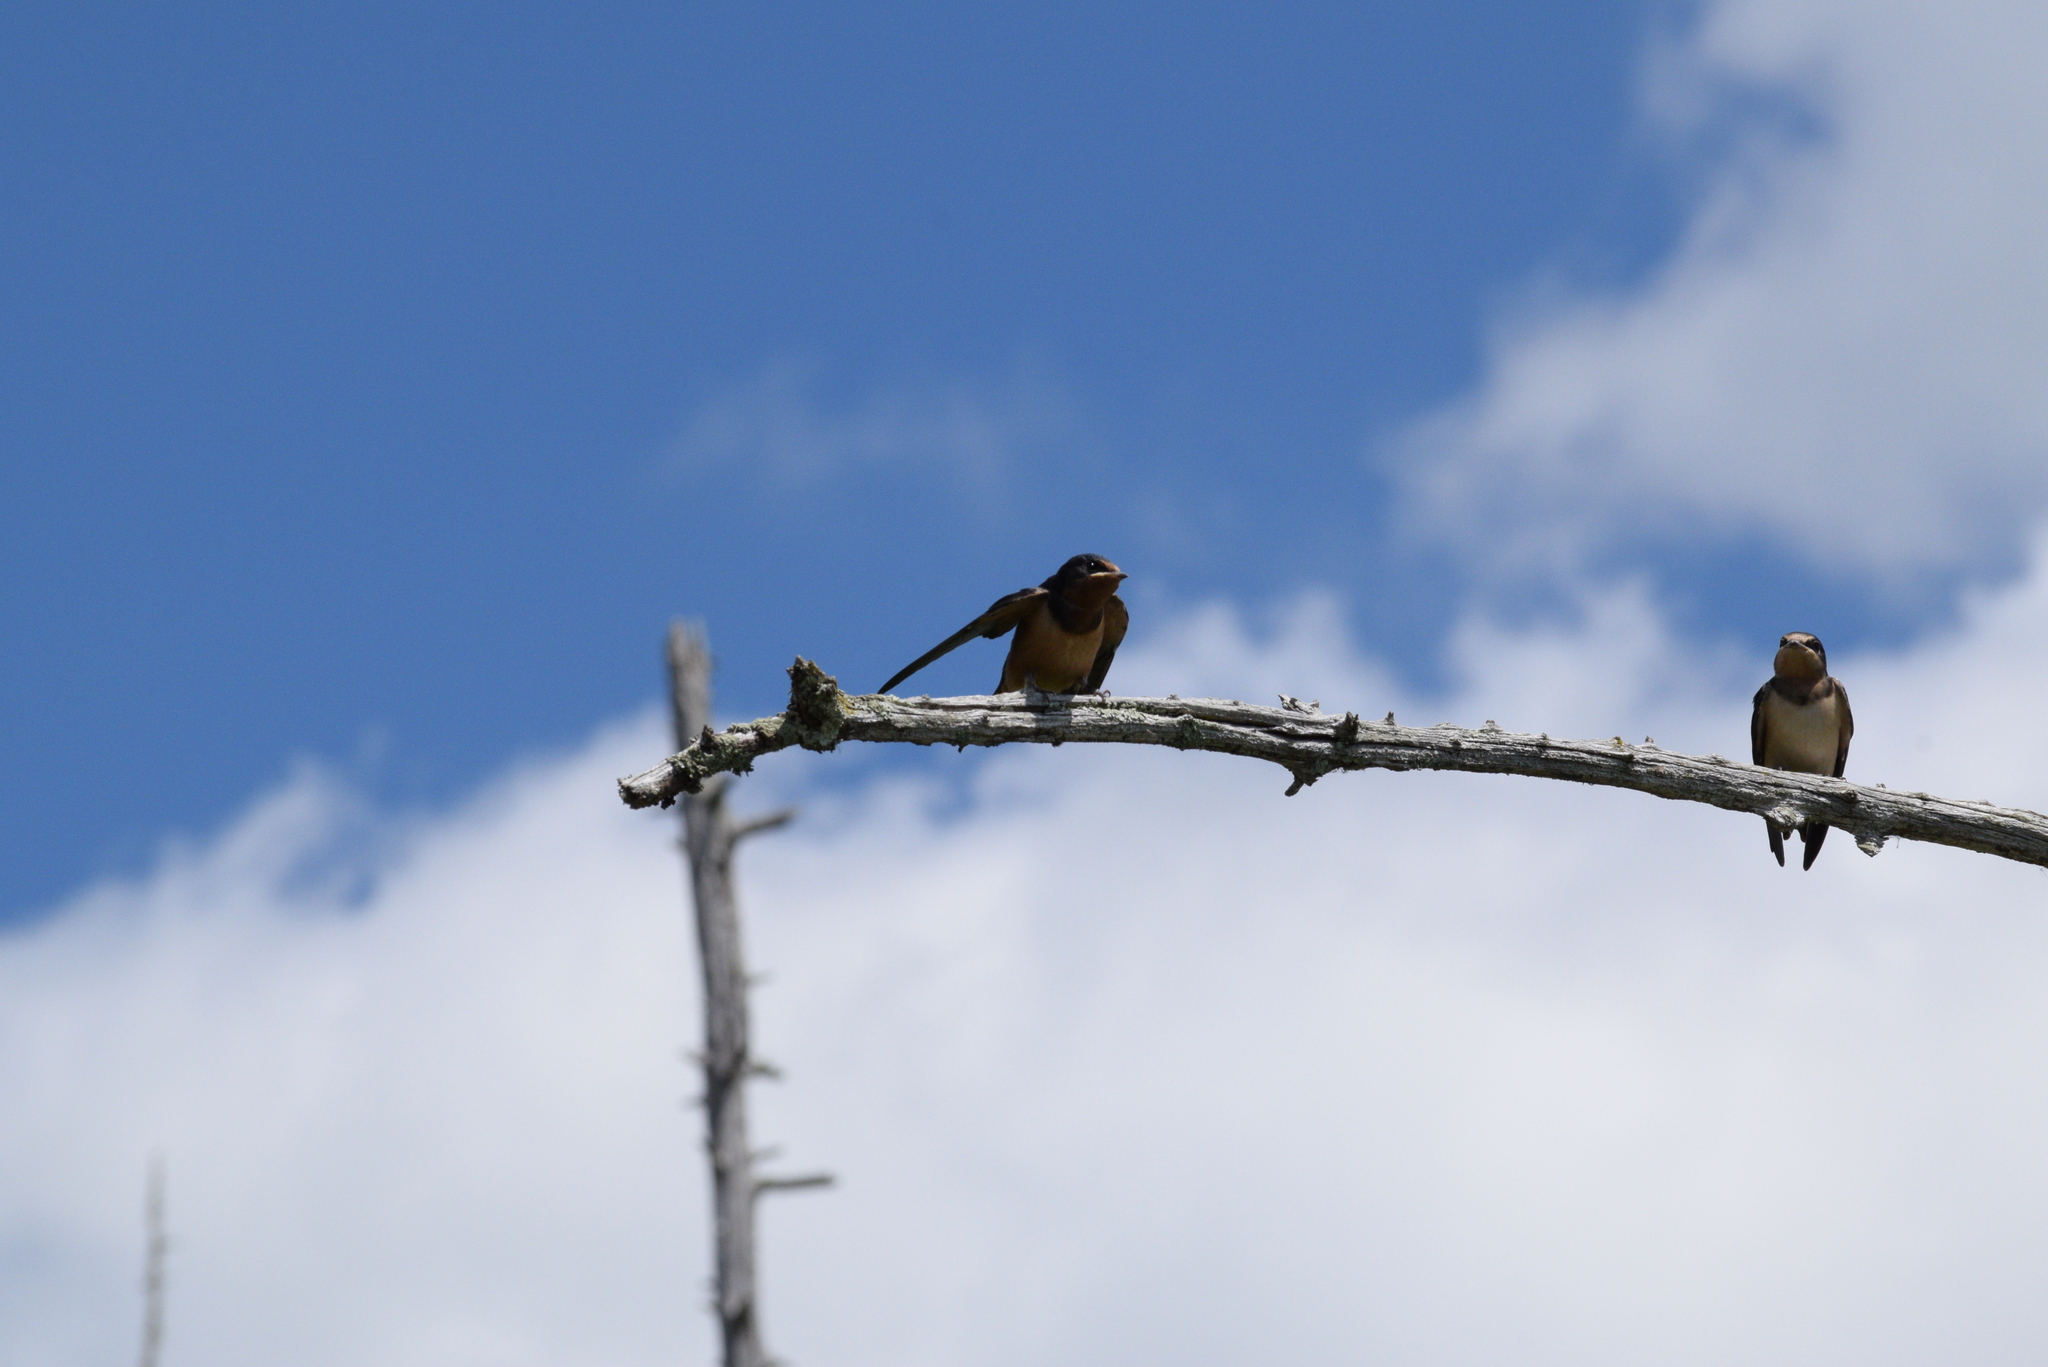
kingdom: Animalia
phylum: Chordata
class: Aves
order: Passeriformes
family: Hirundinidae
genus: Hirundo
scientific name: Hirundo rustica
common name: Barn swallow
